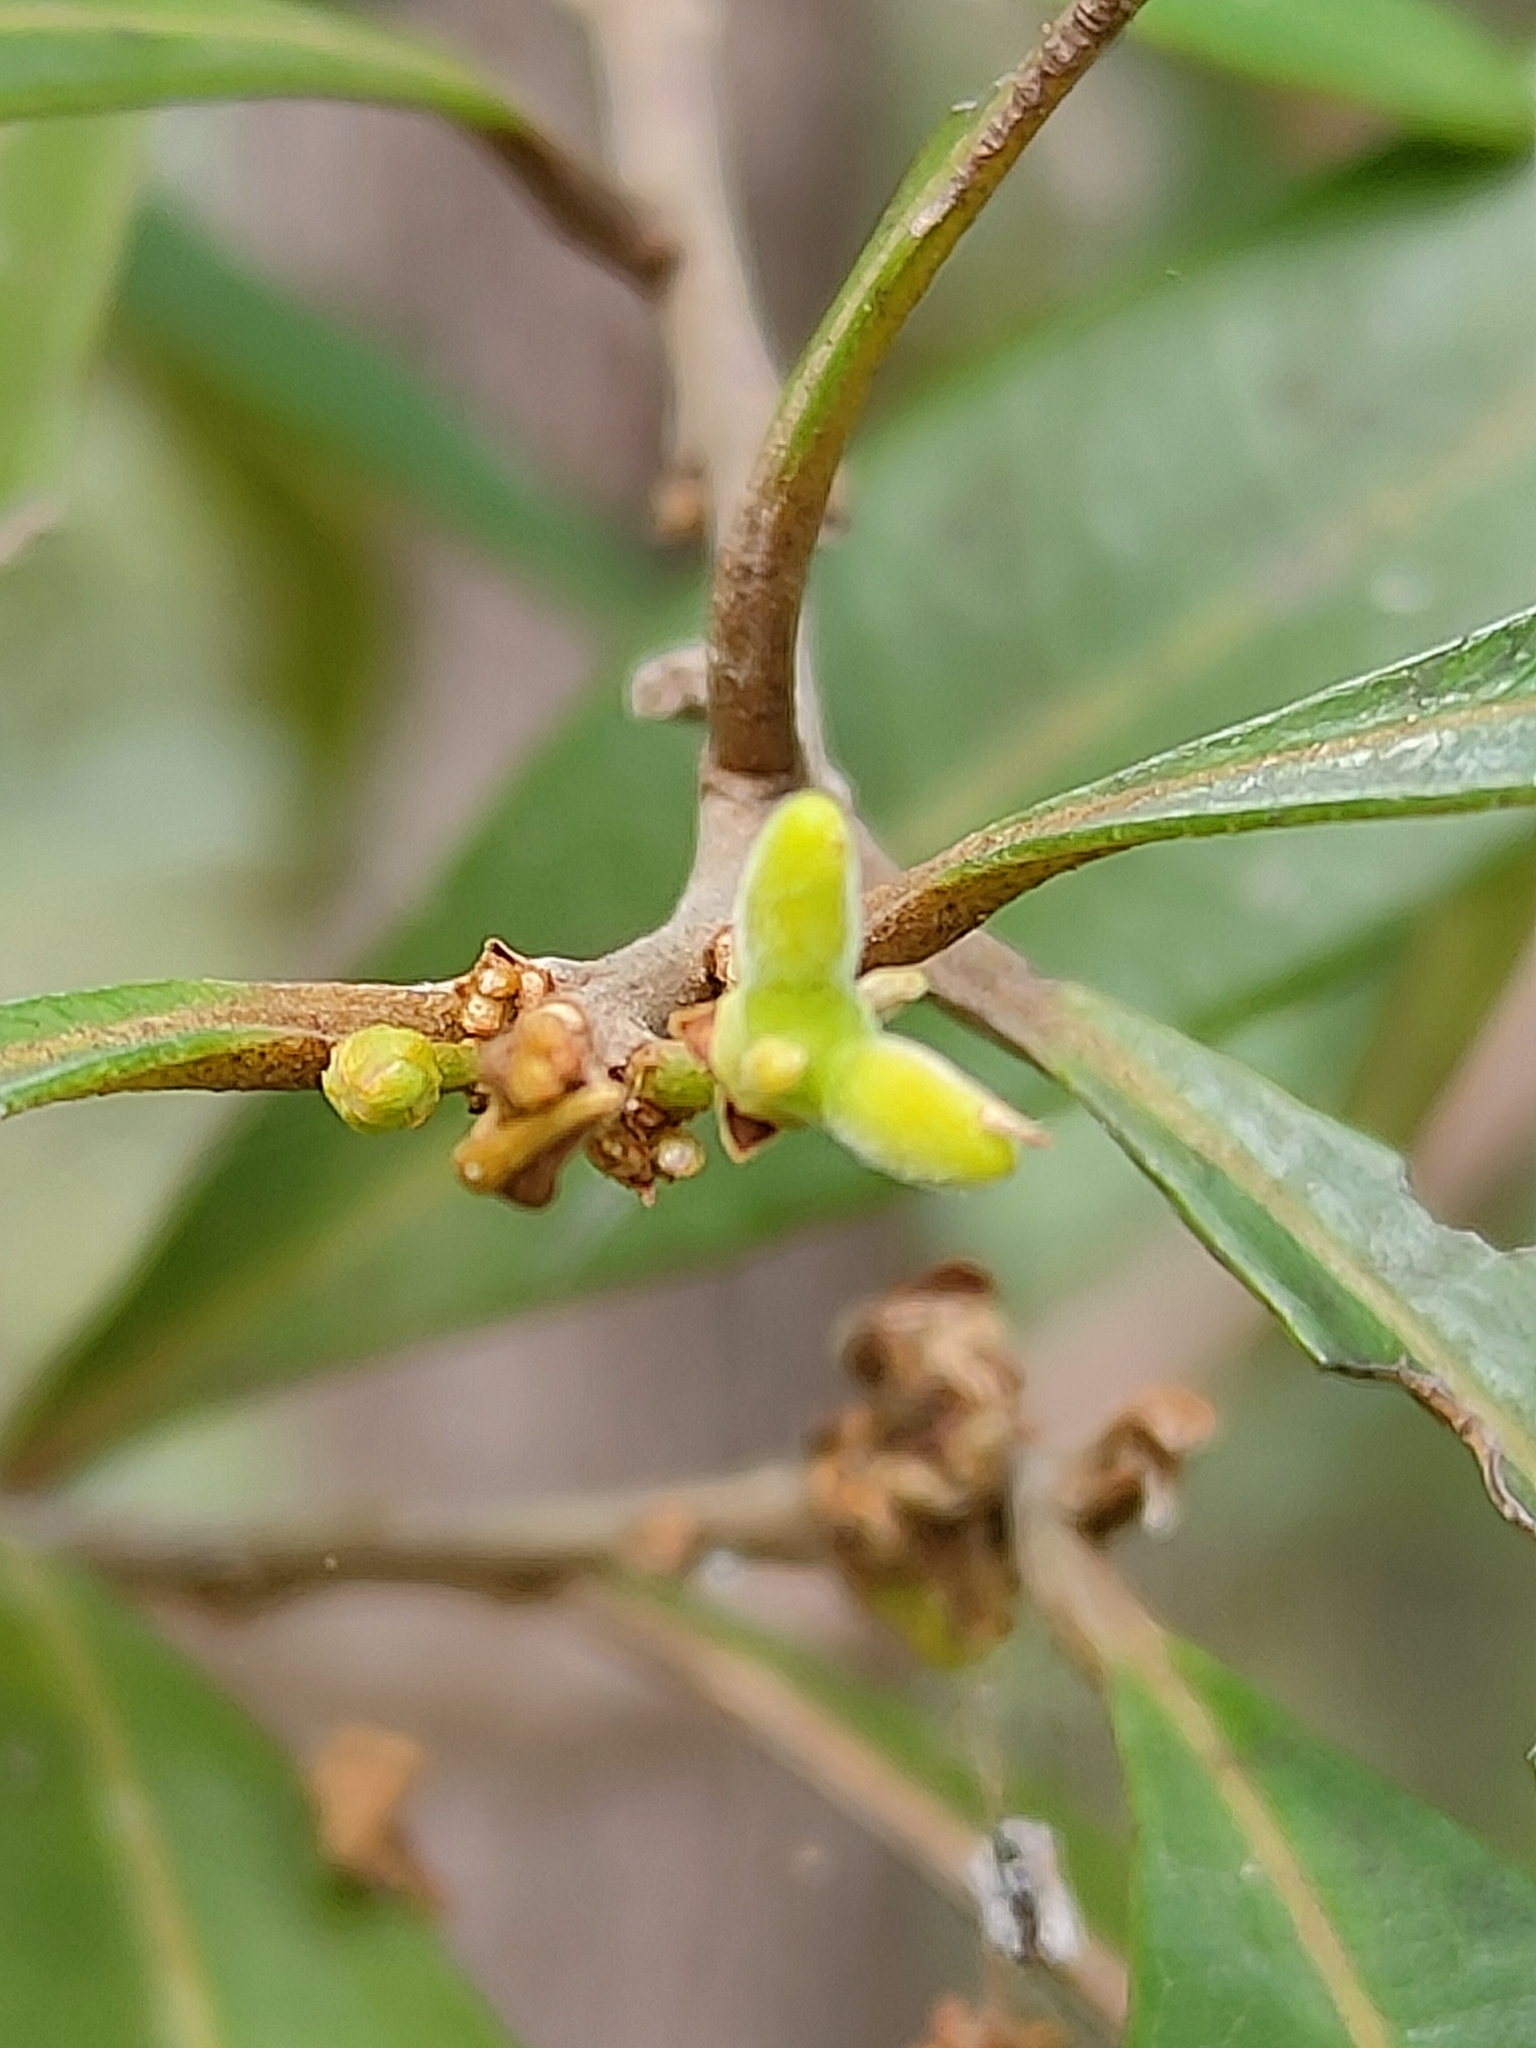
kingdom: Plantae
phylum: Tracheophyta
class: Magnoliopsida
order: Sapindales
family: Simaroubaceae
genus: Samadera
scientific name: Samadera bidwillii
